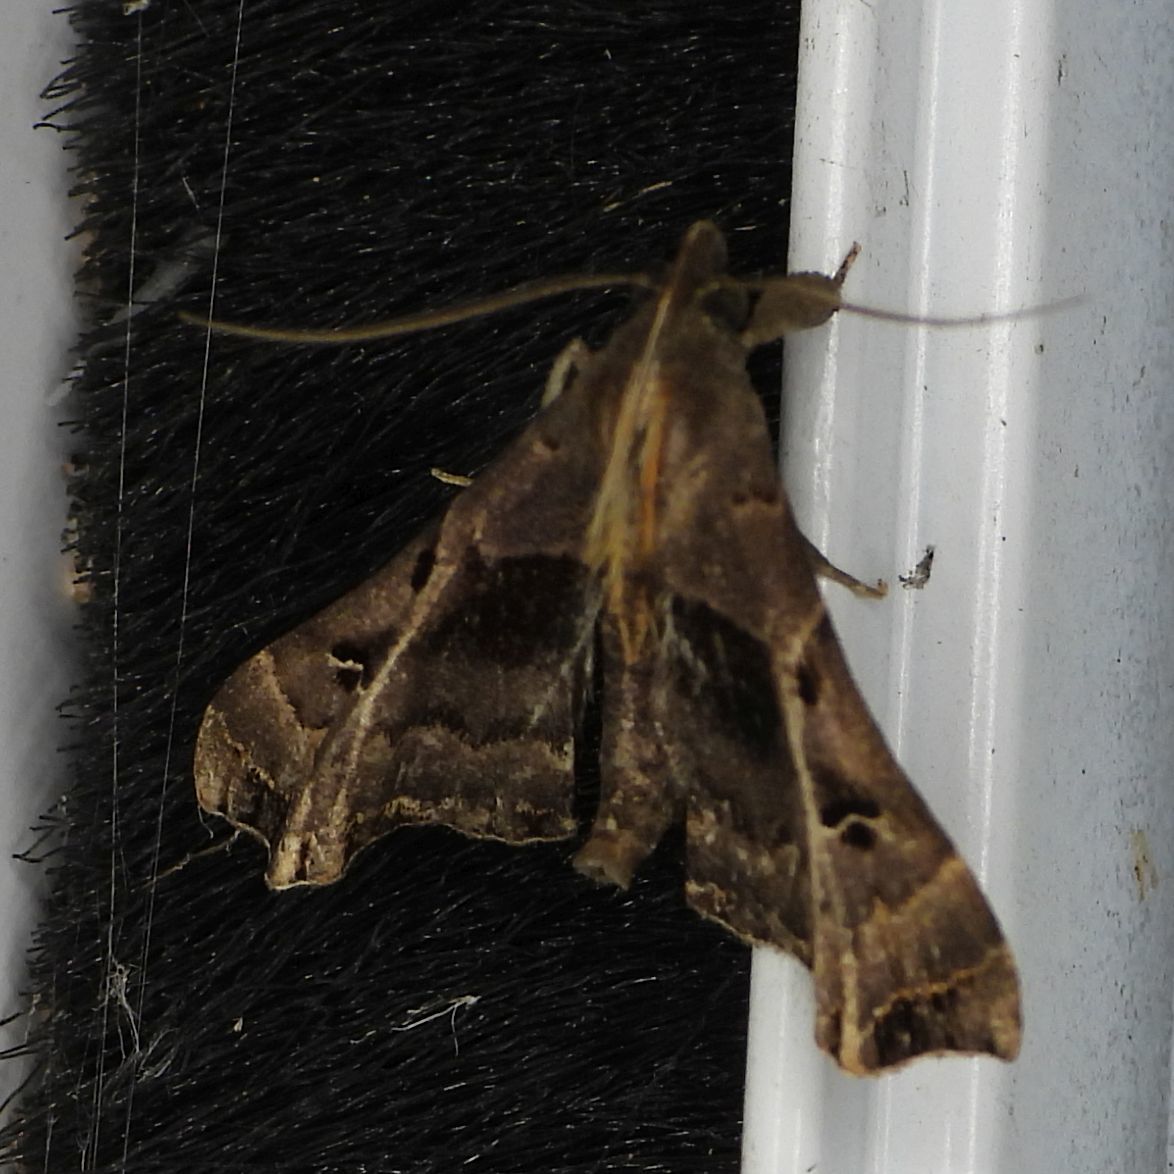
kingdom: Animalia
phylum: Arthropoda
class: Insecta
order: Lepidoptera
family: Erebidae
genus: Palthis
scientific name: Palthis asopialis
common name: Faint-spotted palthis moth
